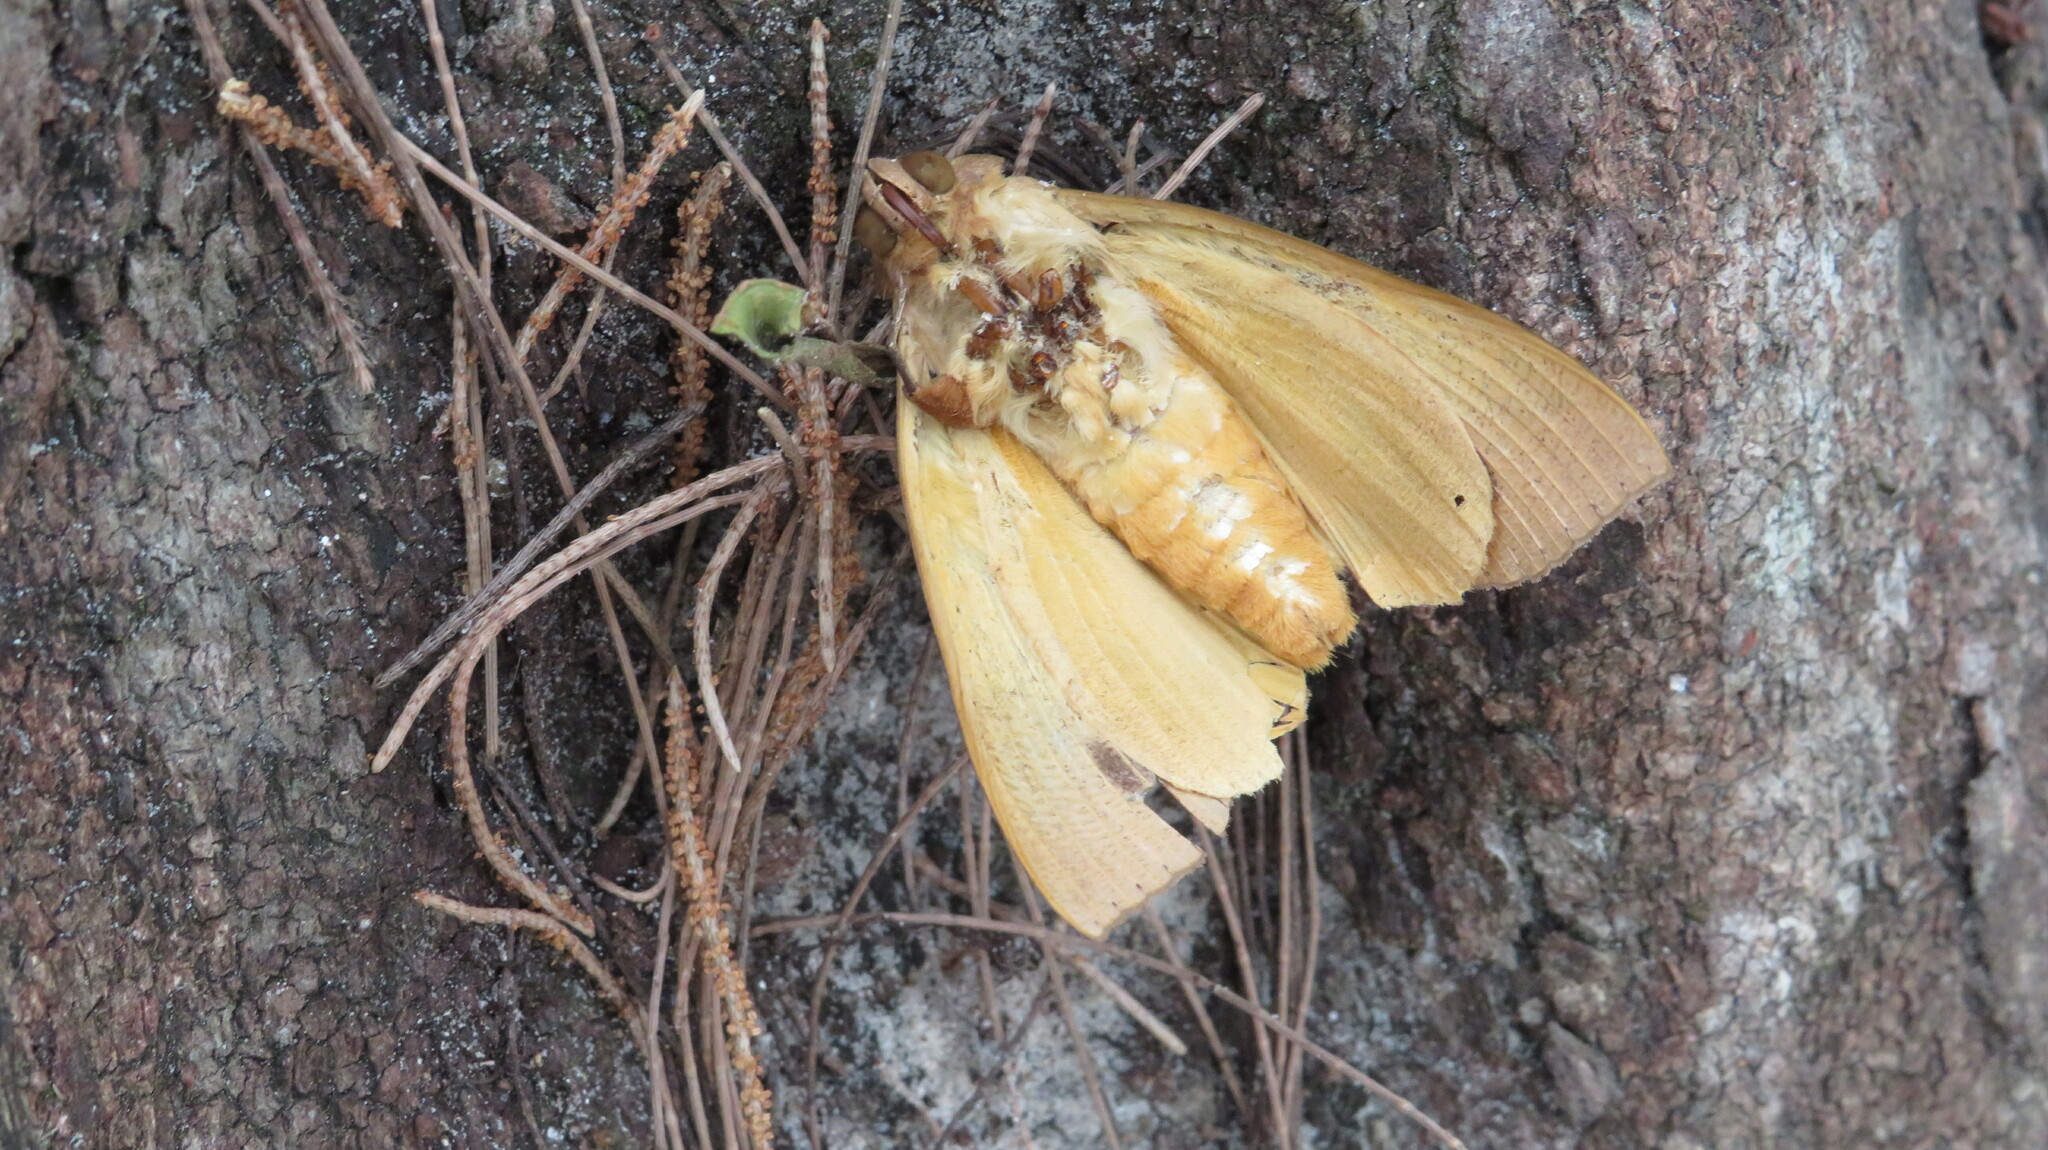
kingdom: Animalia
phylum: Arthropoda
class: Insecta
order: Lepidoptera
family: Erebidae
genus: Thyas
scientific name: Thyas coronata
